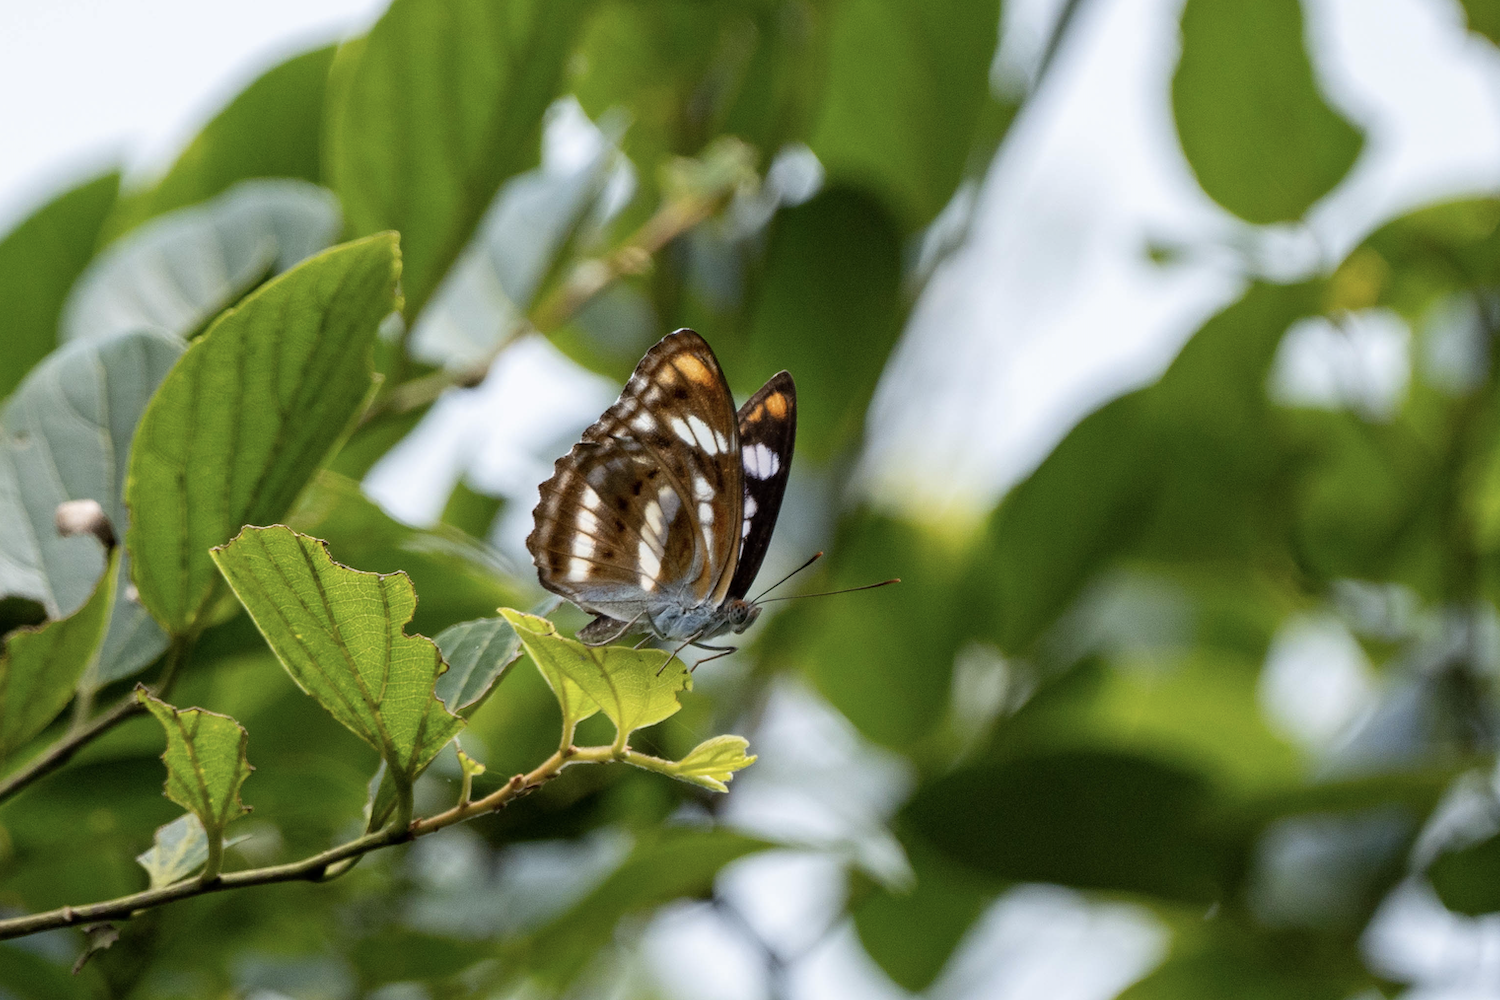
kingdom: Animalia
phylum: Arthropoda
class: Insecta
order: Lepidoptera
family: Nymphalidae
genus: Parathyma
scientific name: Parathyma nefte
